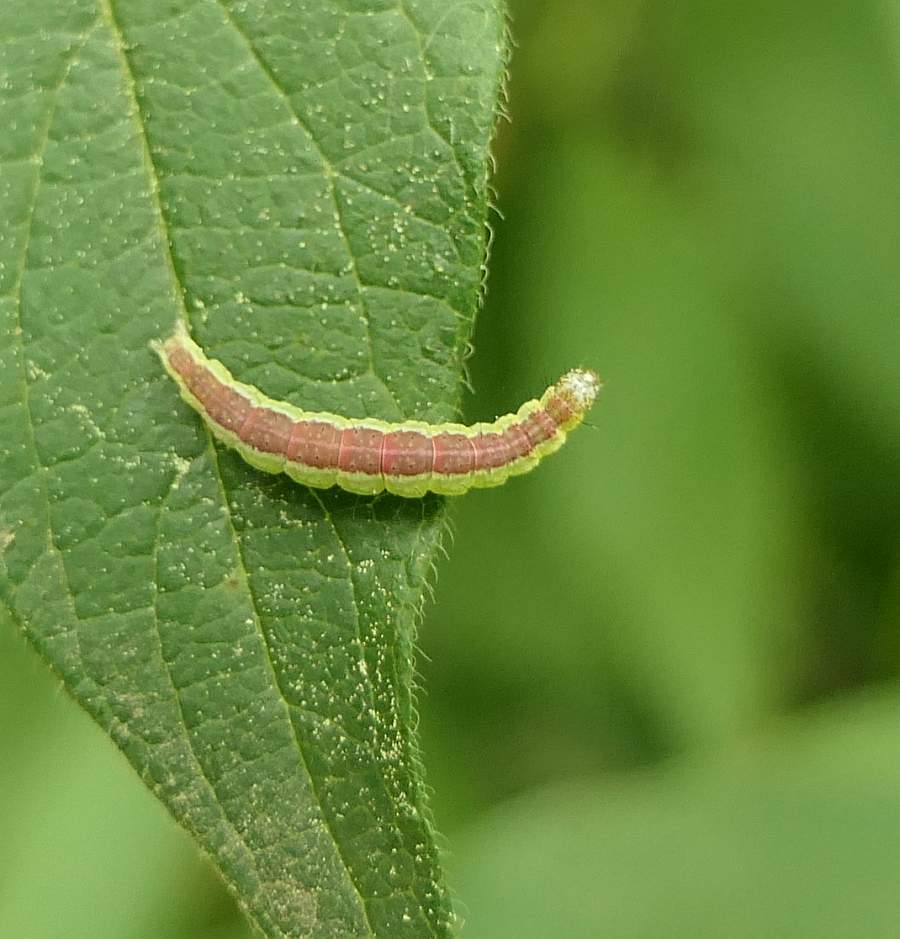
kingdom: Animalia
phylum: Arthropoda
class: Insecta
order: Lepidoptera
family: Ypsolophidae
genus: Ypsolopha
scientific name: Ypsolopha dentella
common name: Honeysuckle moth
